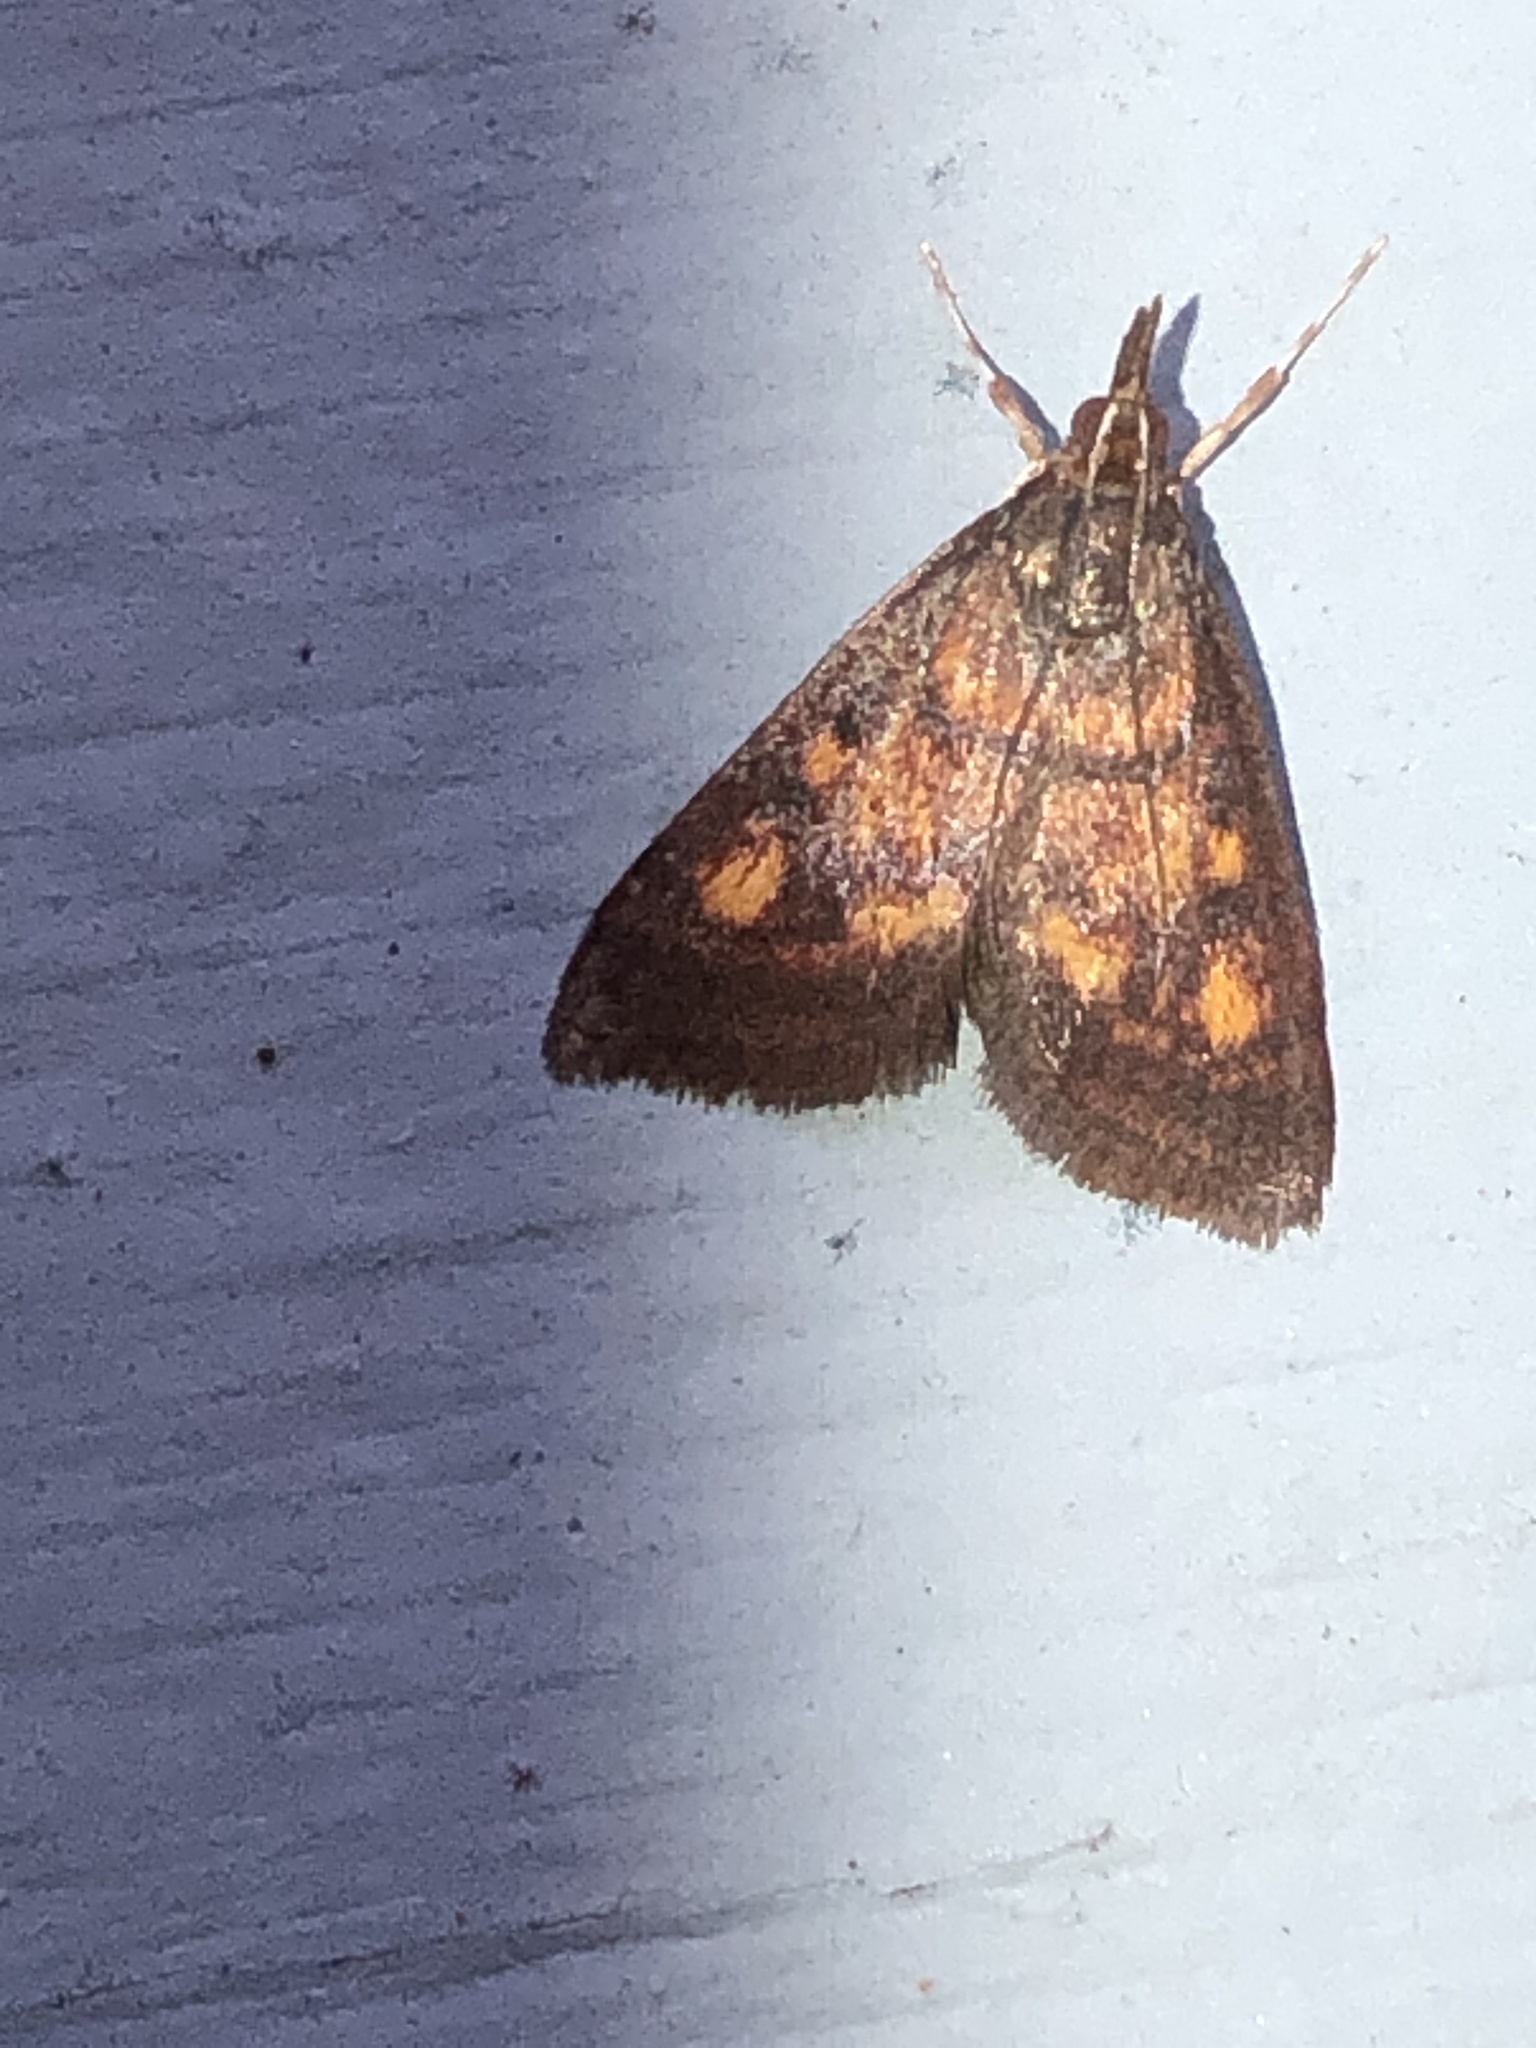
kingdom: Animalia
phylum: Arthropoda
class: Insecta
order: Lepidoptera
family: Crambidae
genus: Pyrausta
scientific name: Pyrausta acrionalis
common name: Mint-loving pyrausta moth
